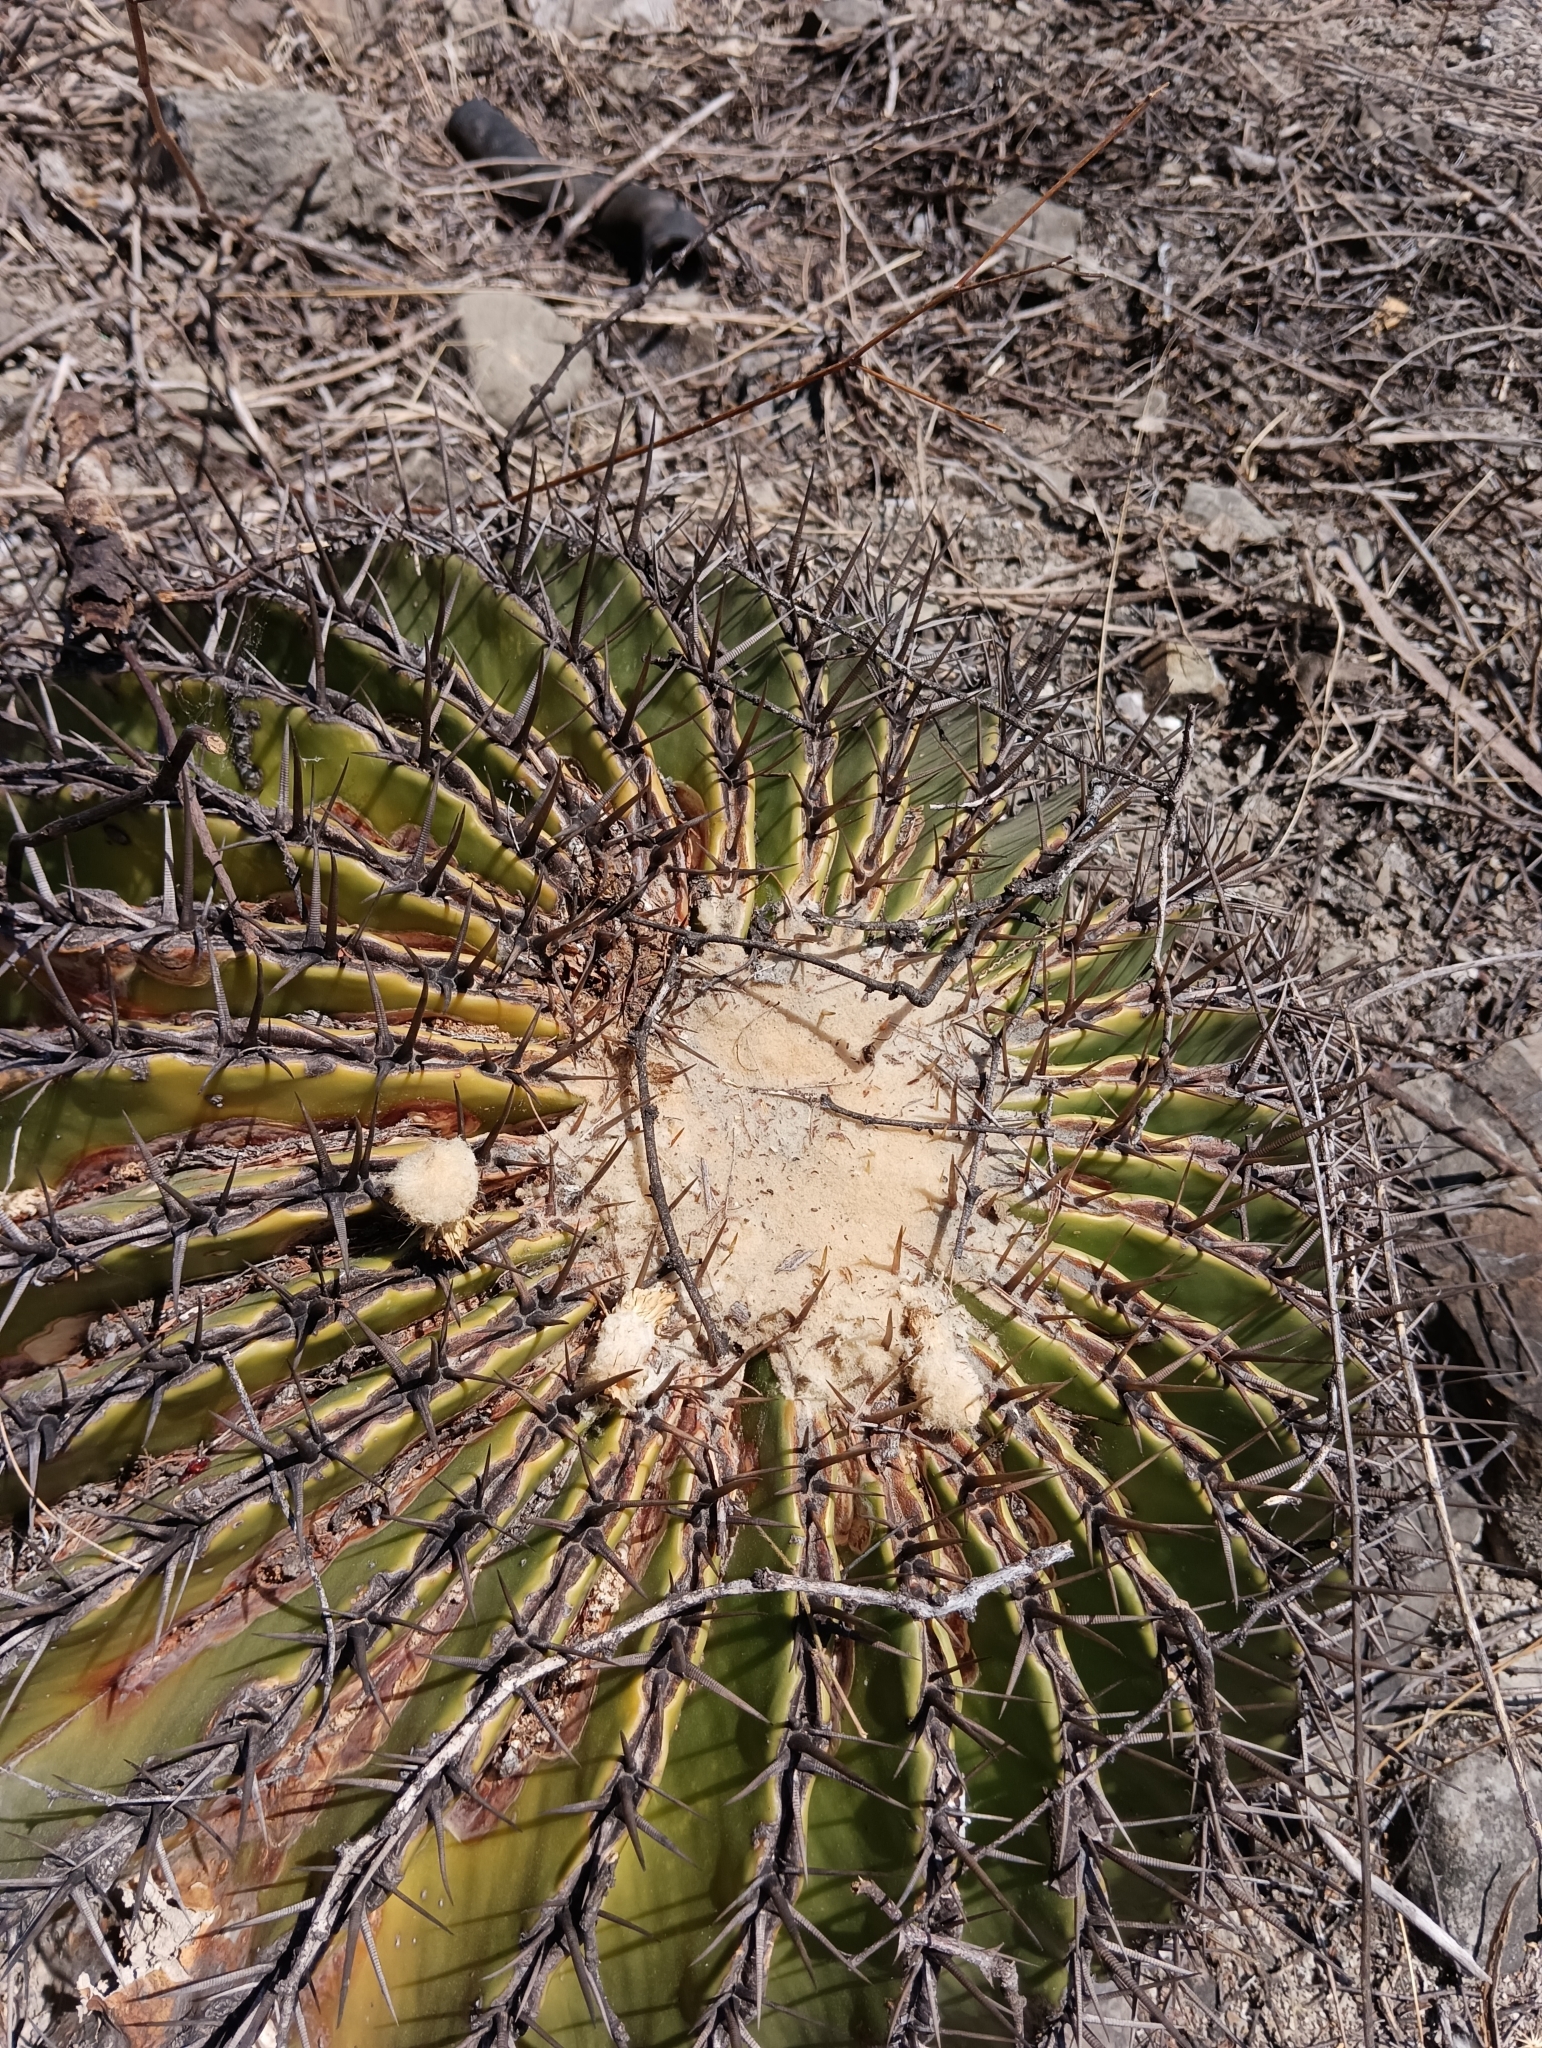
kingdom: Plantae
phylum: Tracheophyta
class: Magnoliopsida
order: Caryophyllales
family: Cactaceae
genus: Echinocactus
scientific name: Echinocactus platyacanthus
